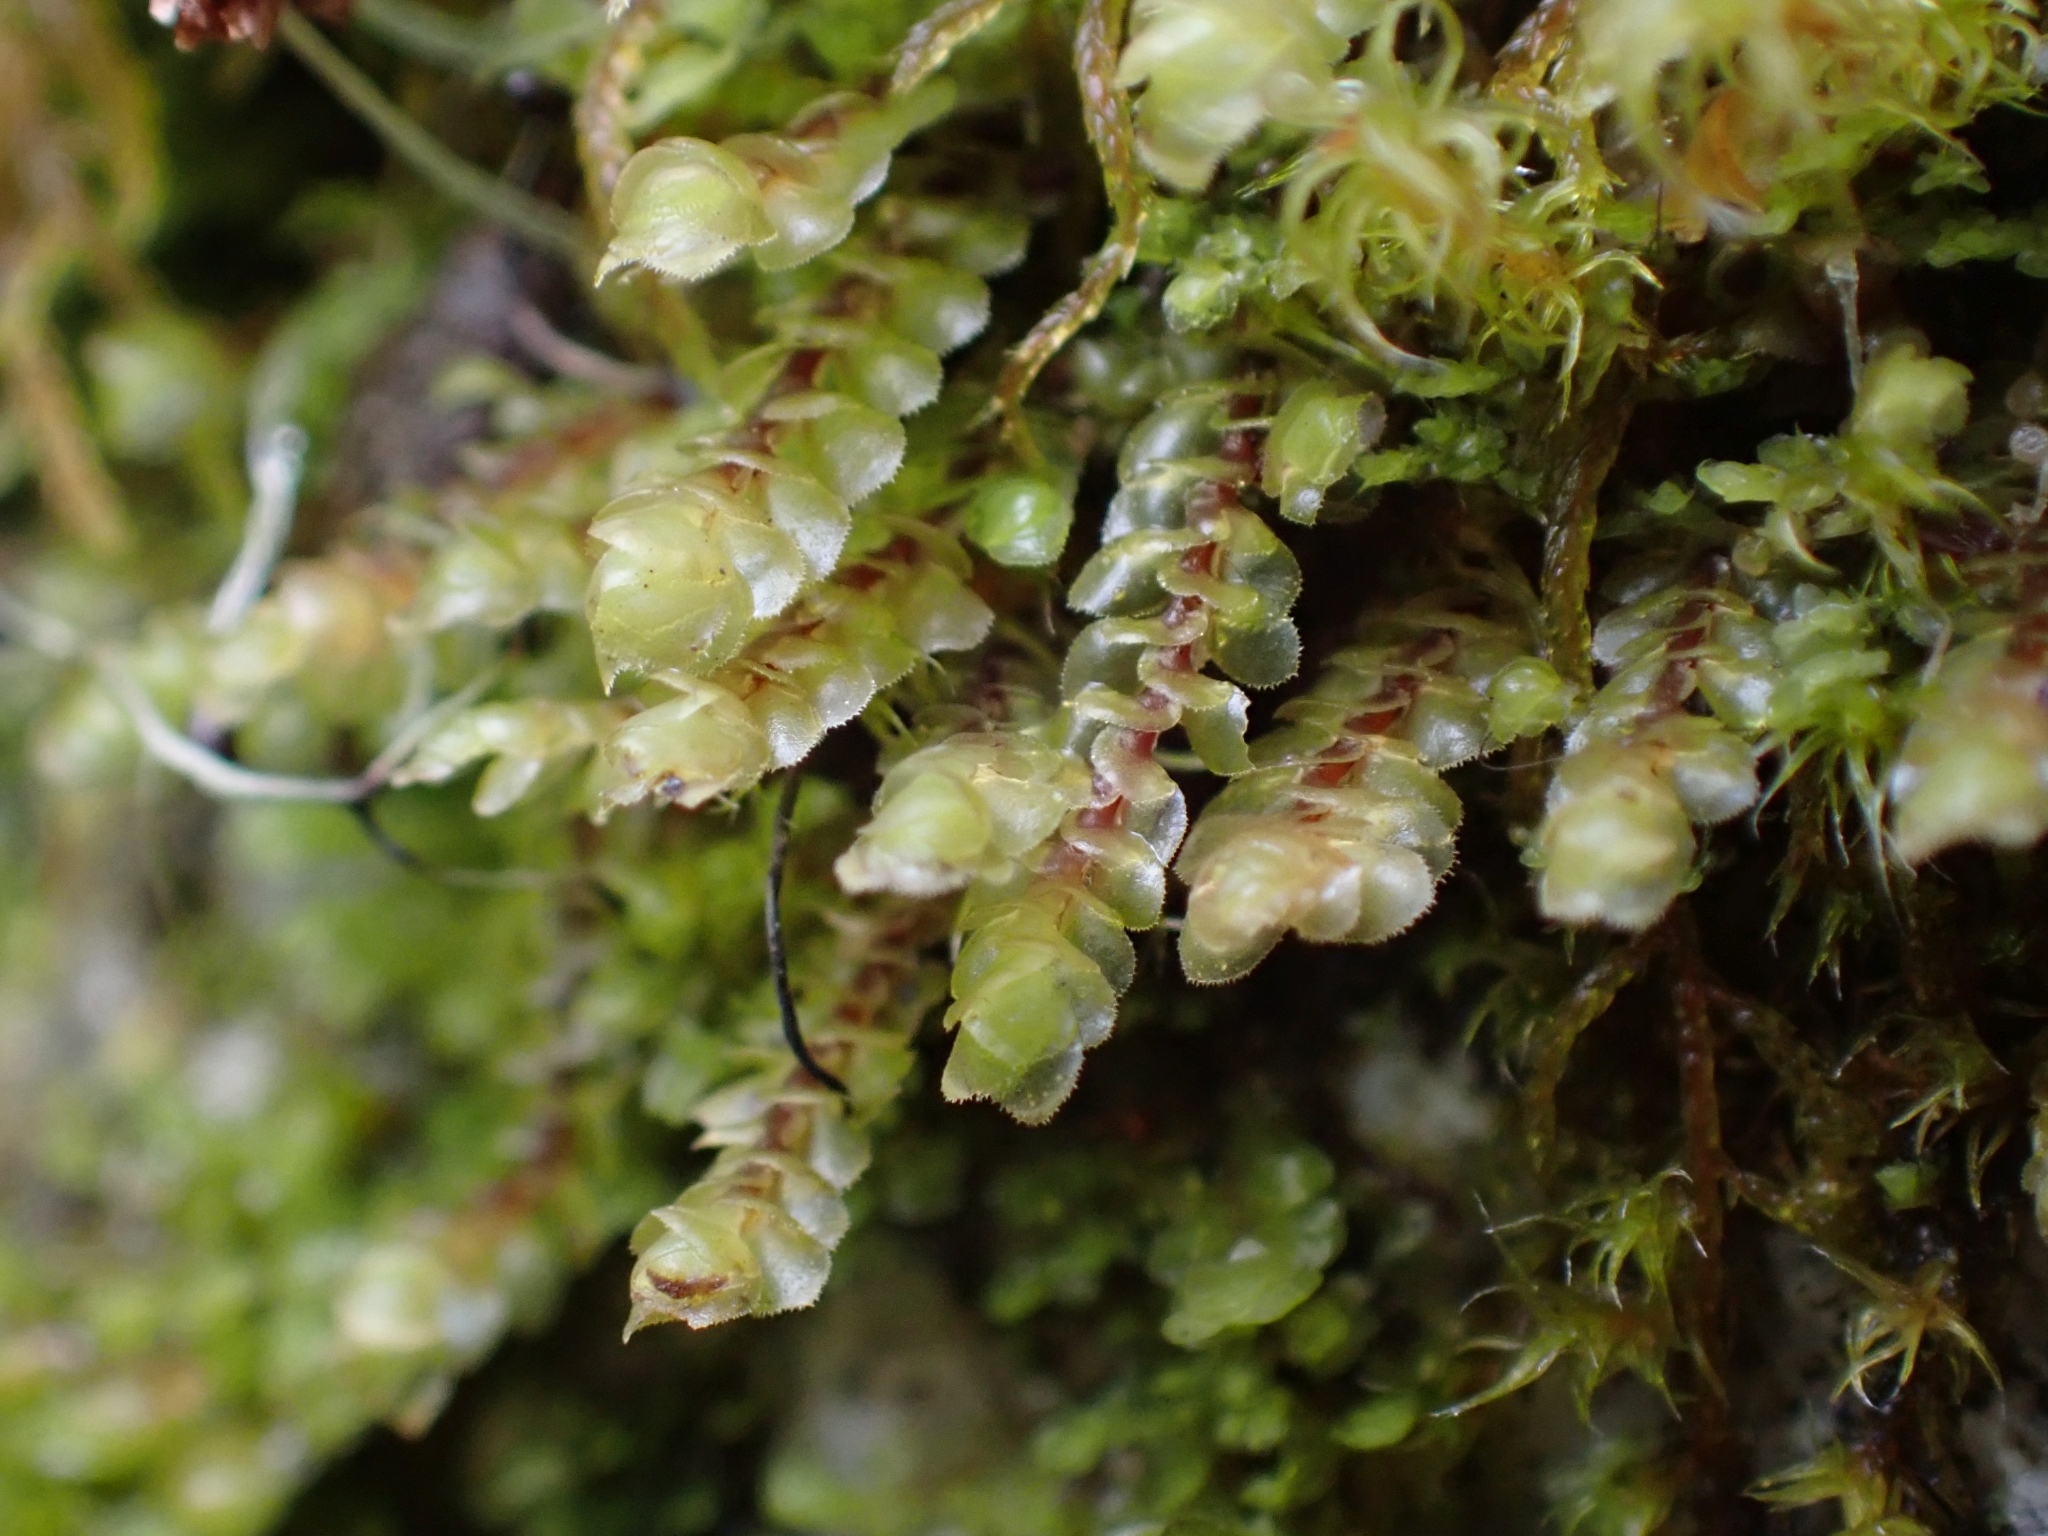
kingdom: Plantae
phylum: Marchantiophyta
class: Jungermanniopsida
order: Jungermanniales
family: Scapaniaceae
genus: Scapania
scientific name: Scapania americana
